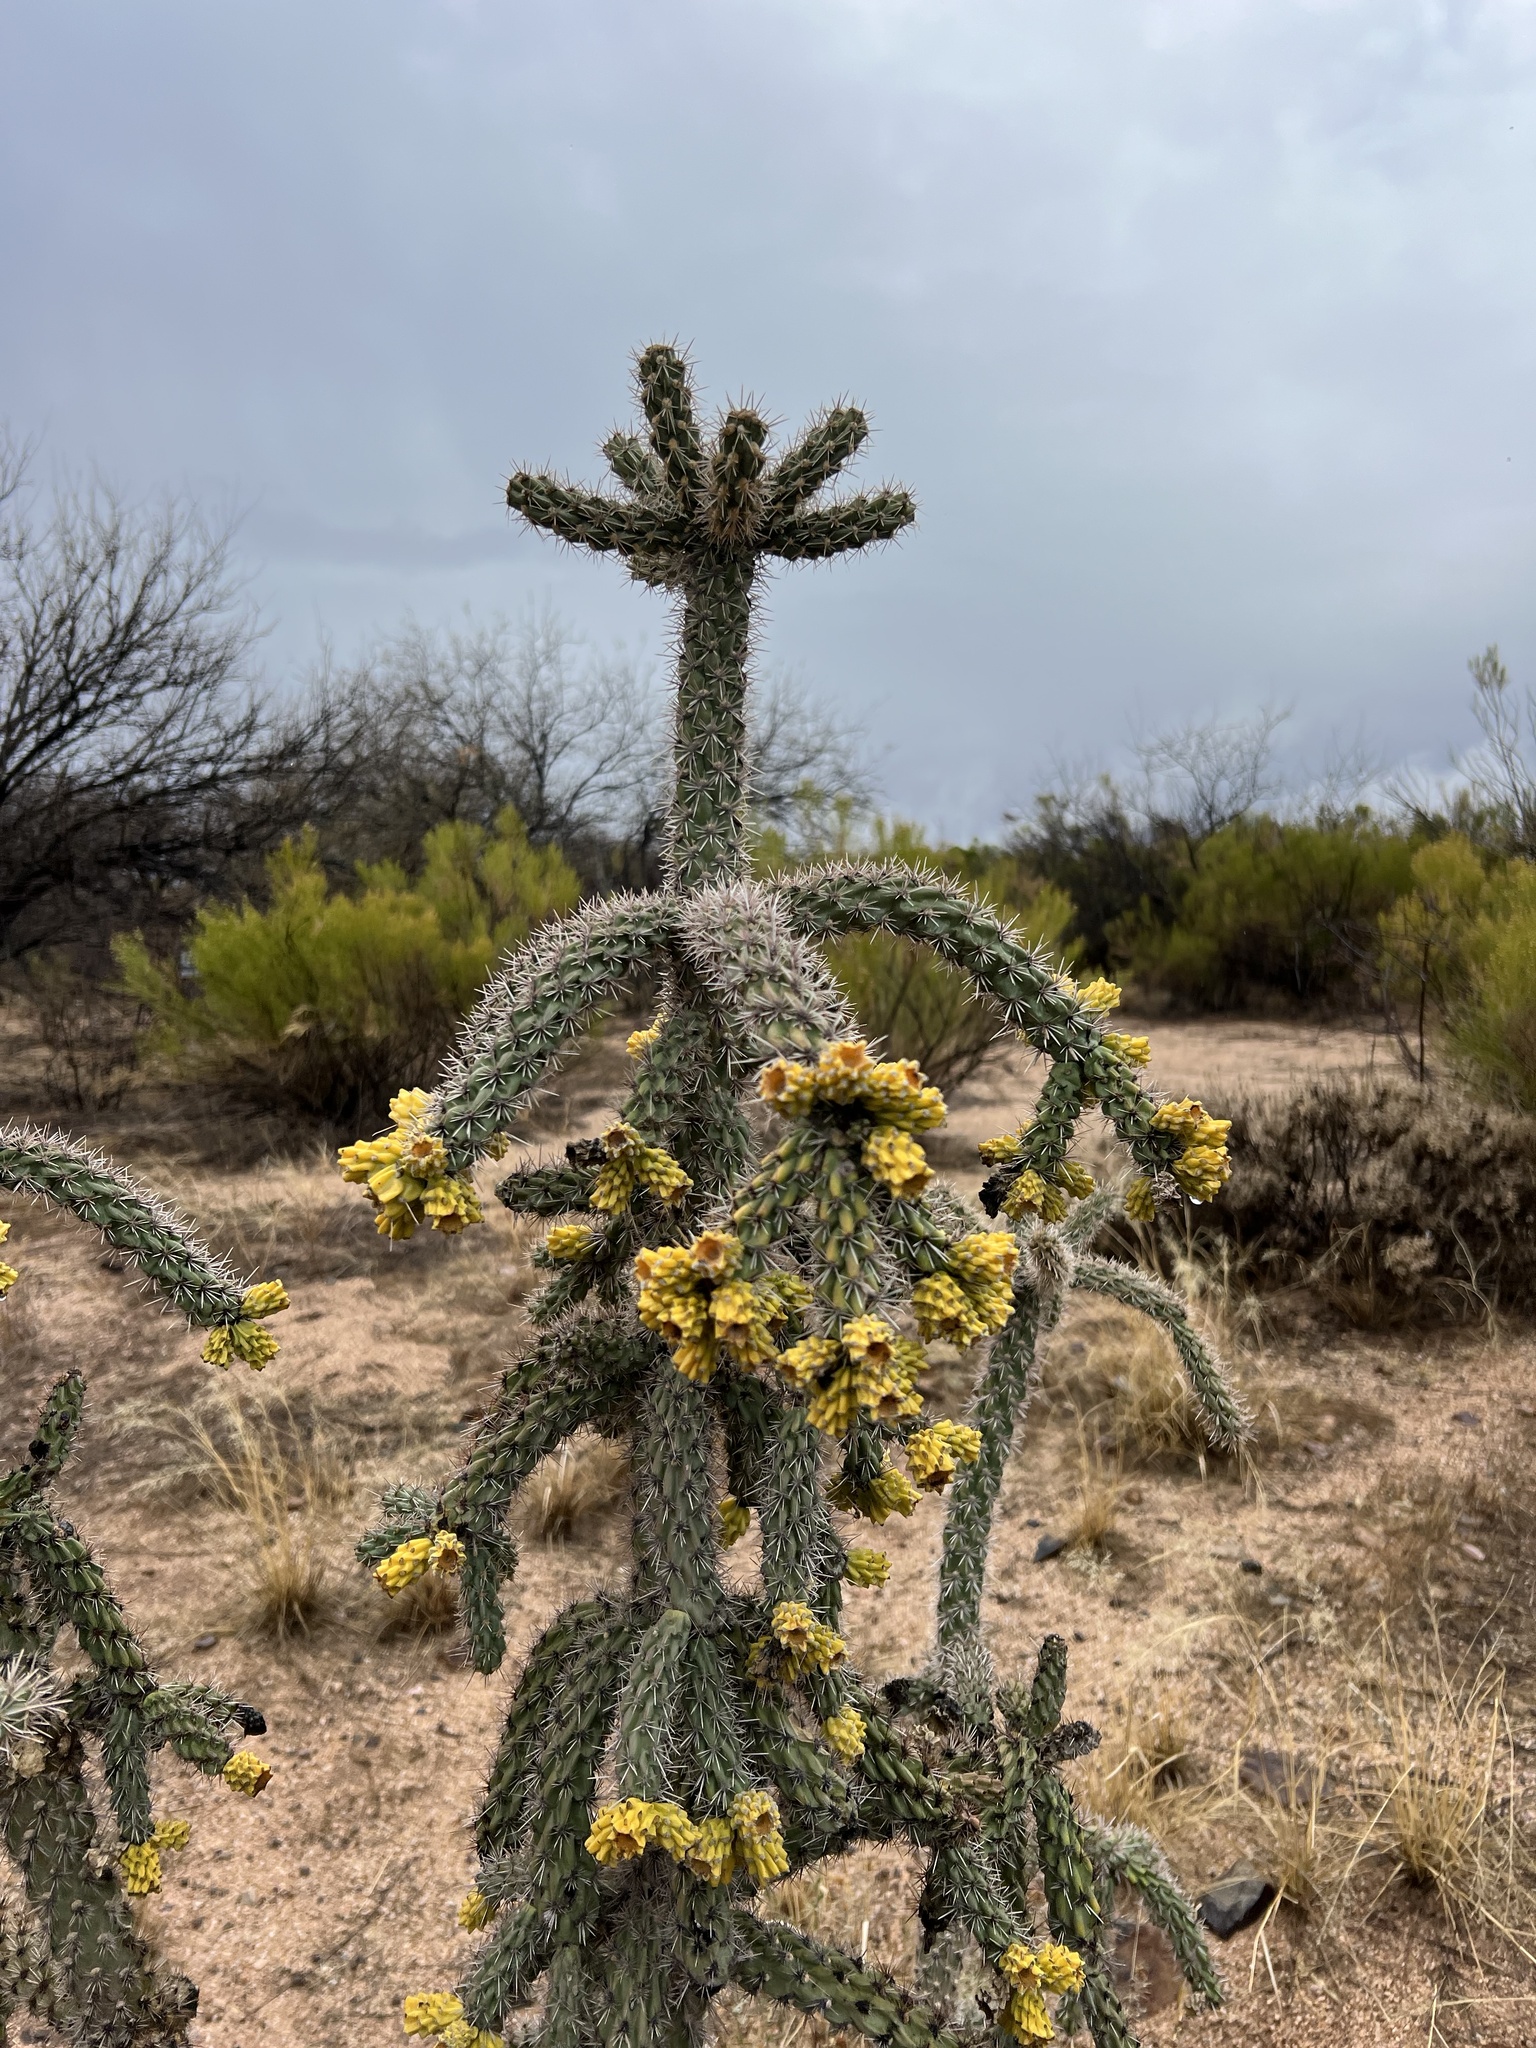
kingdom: Plantae
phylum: Tracheophyta
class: Magnoliopsida
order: Caryophyllales
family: Cactaceae
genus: Cylindropuntia
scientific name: Cylindropuntia imbricata
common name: Candelabrum cactus
